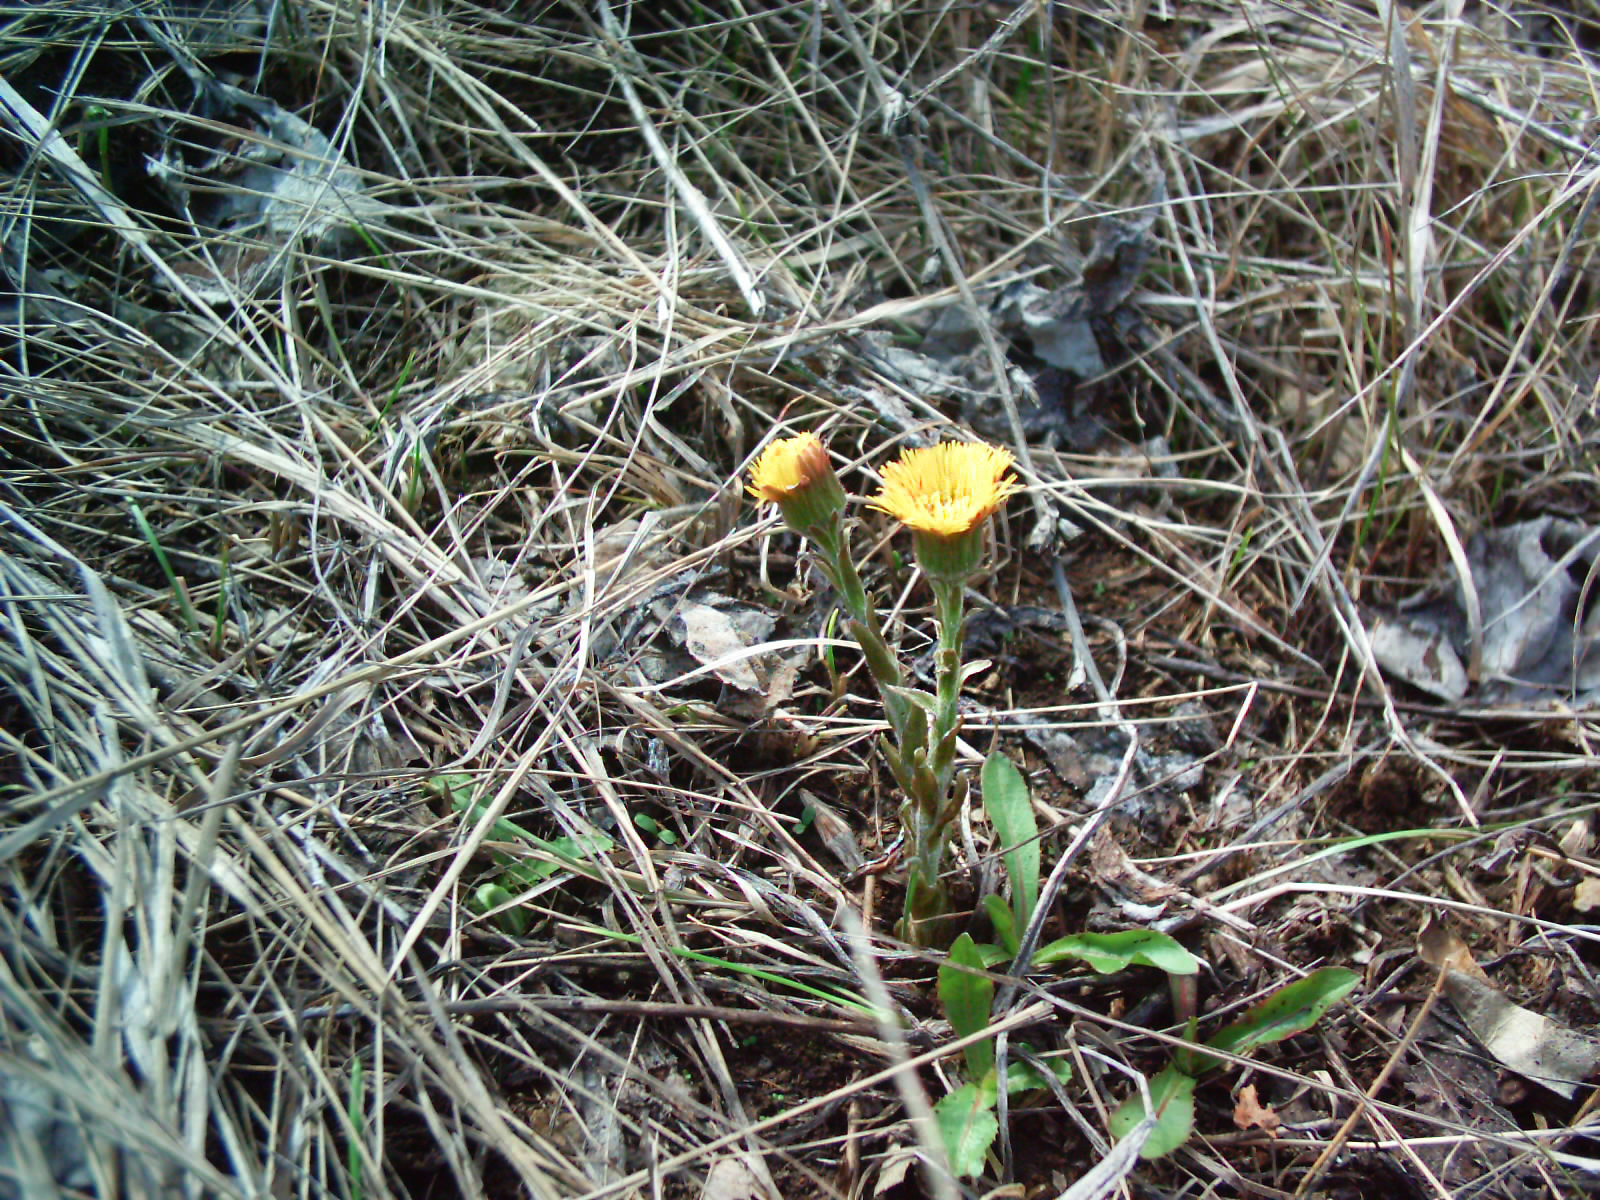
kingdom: Plantae
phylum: Tracheophyta
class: Magnoliopsida
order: Asterales
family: Asteraceae
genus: Tussilago
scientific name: Tussilago farfara
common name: Coltsfoot
